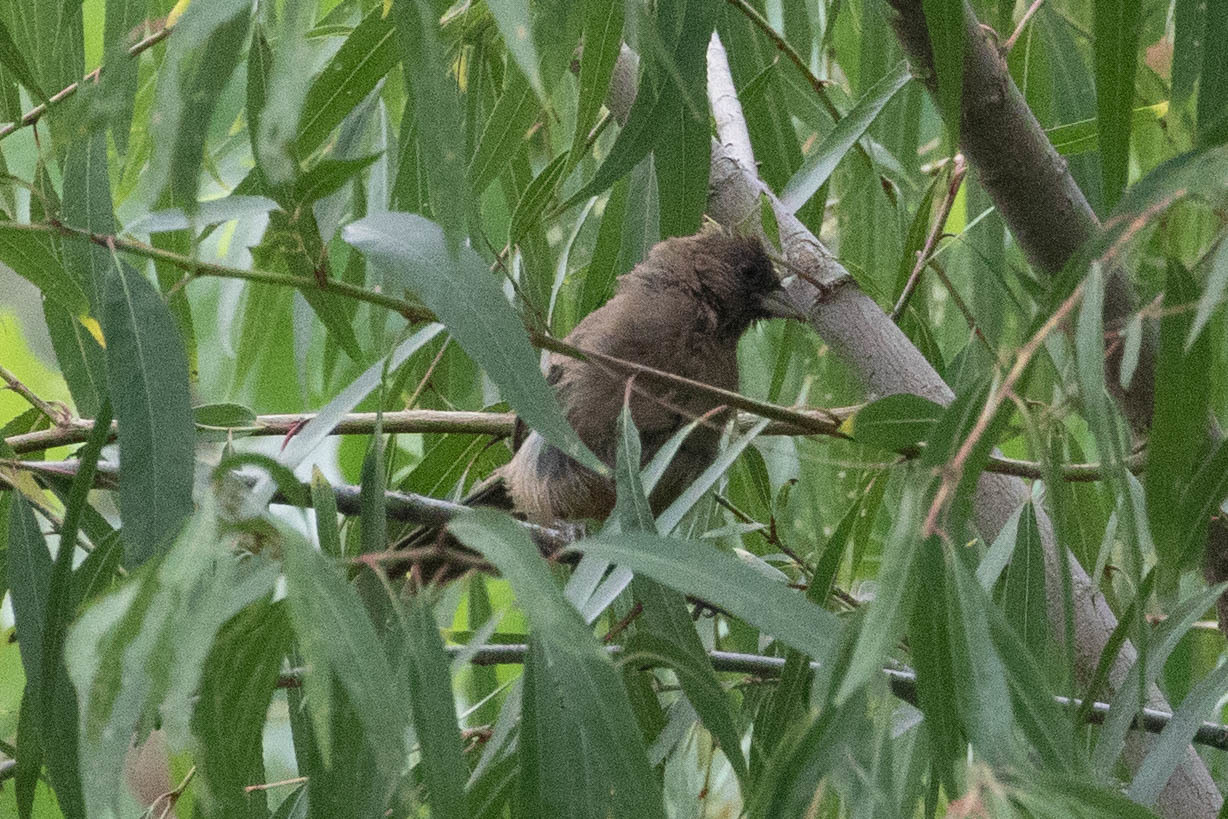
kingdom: Animalia
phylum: Chordata
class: Aves
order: Passeriformes
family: Passerellidae
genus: Melozone
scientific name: Melozone aberti
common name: Abert's towhee
